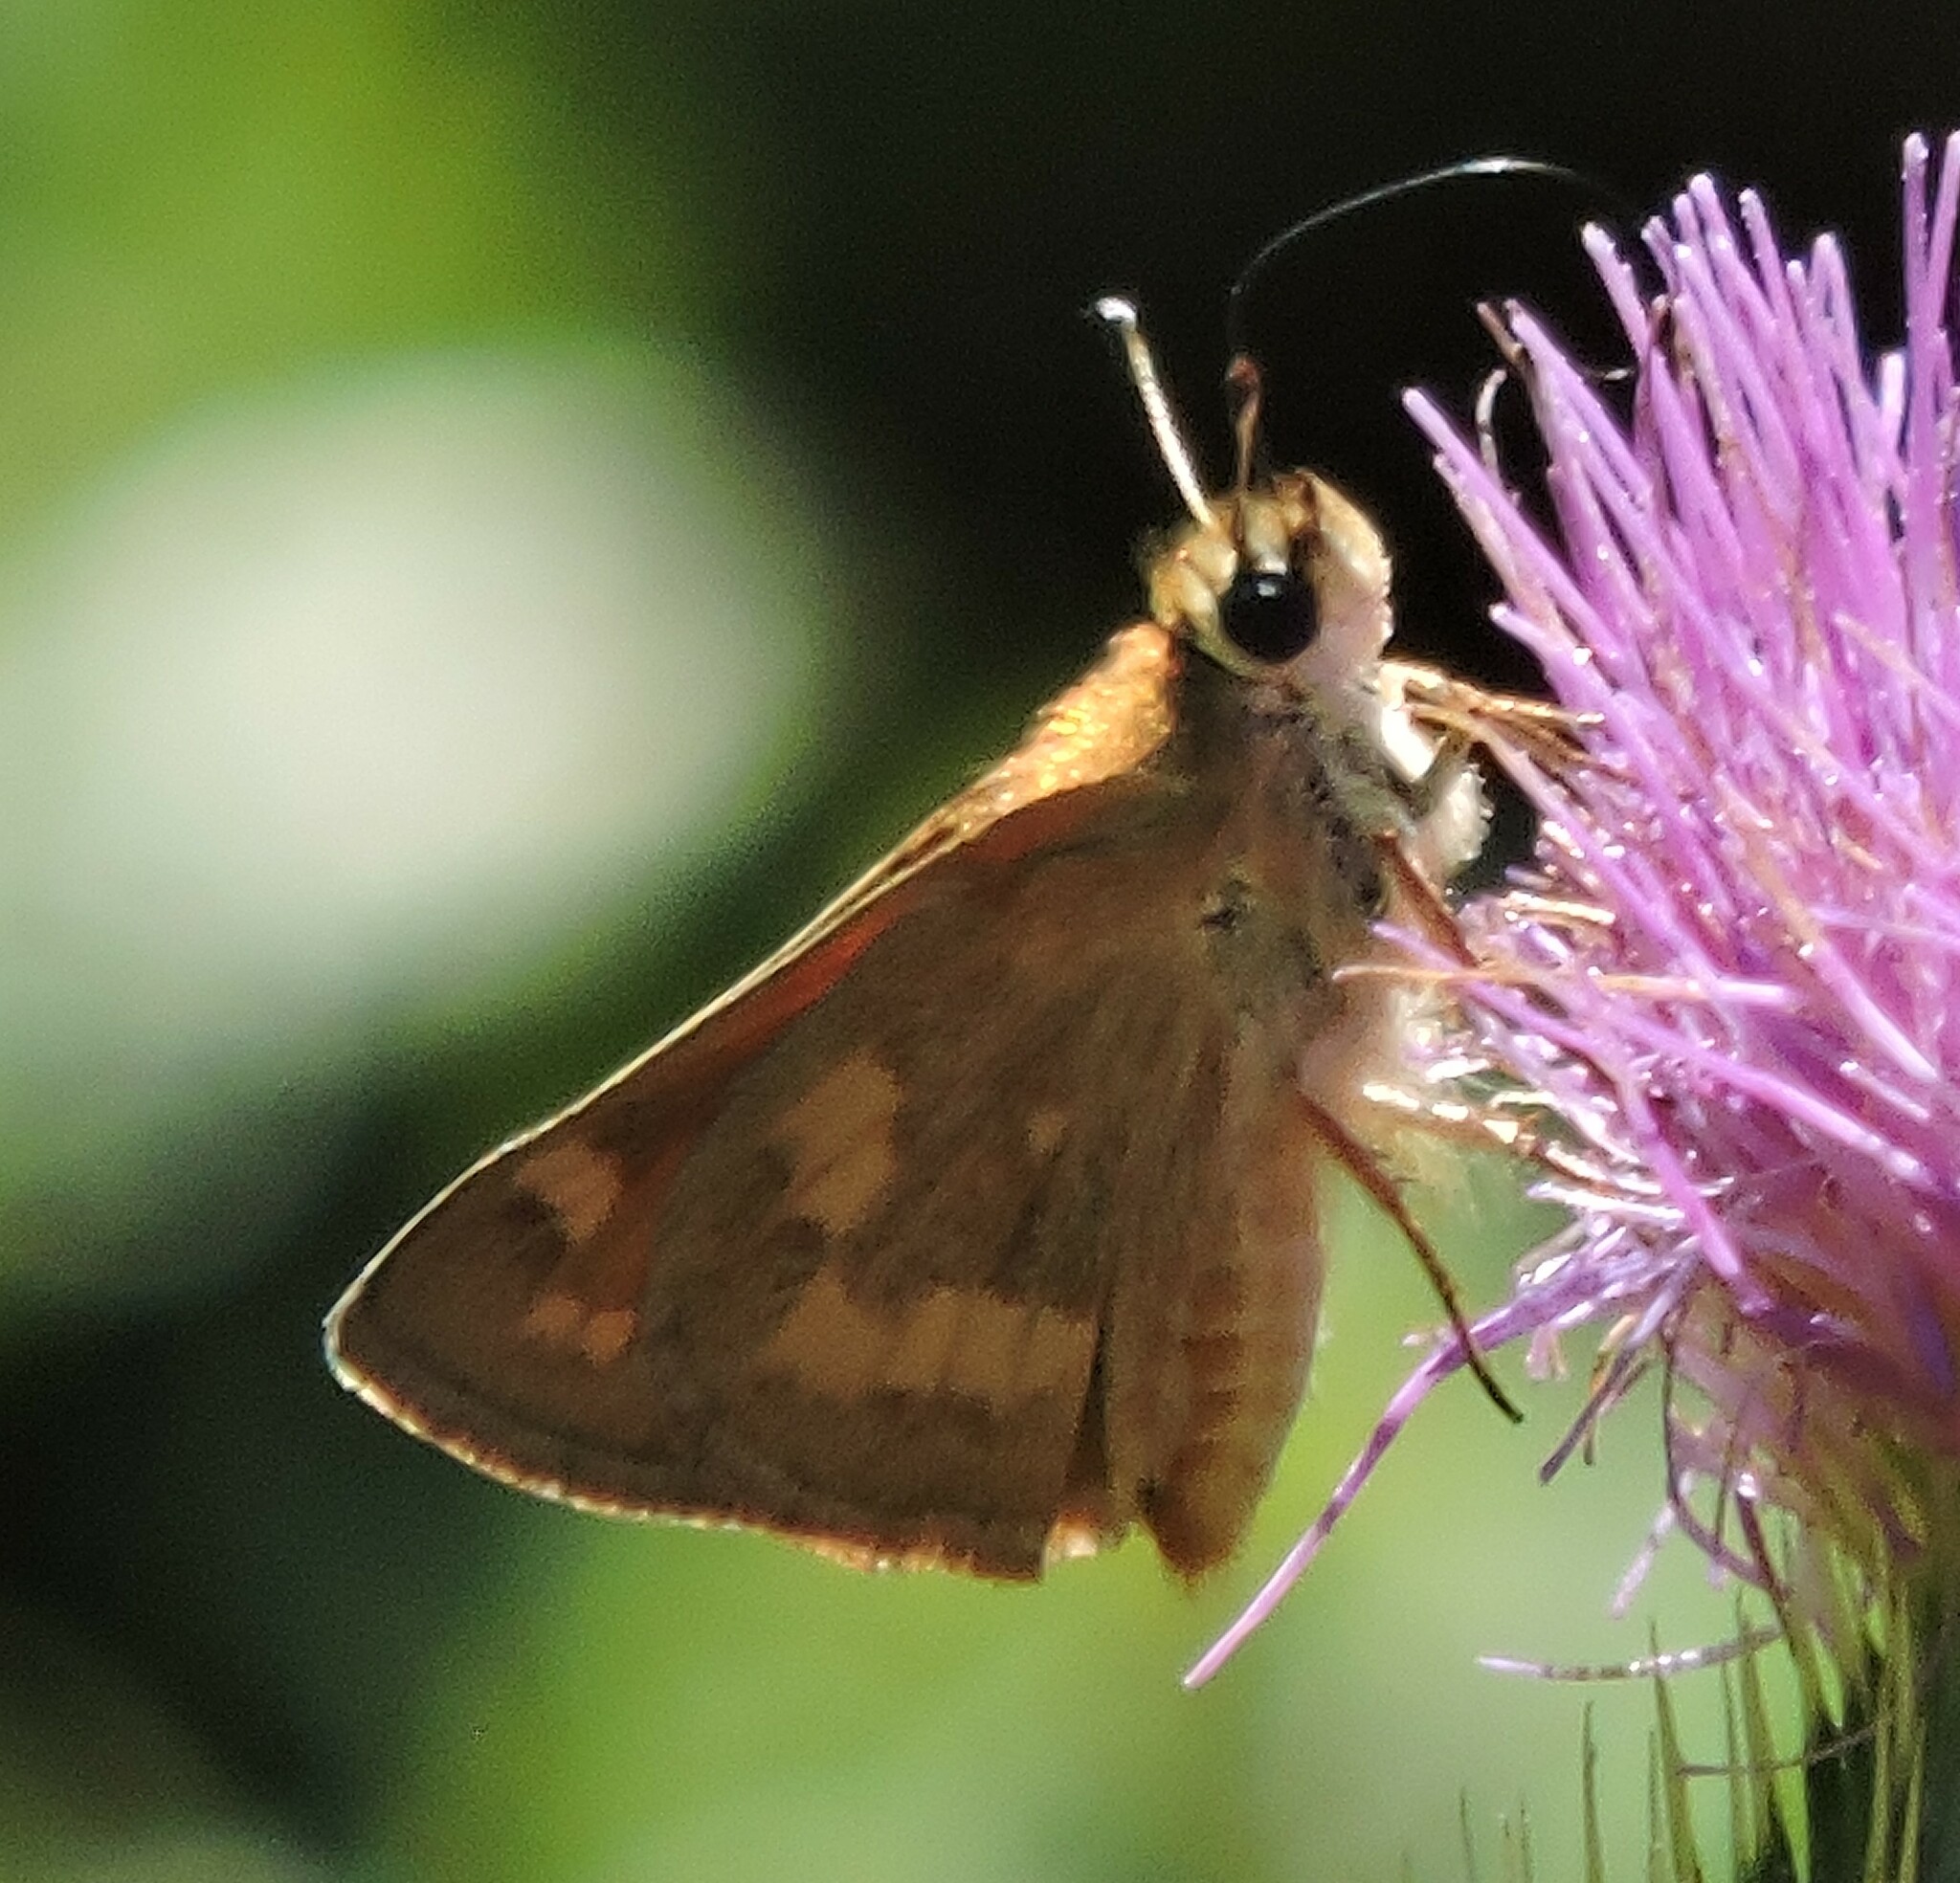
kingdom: Animalia
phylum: Arthropoda
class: Insecta
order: Lepidoptera
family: Hesperiidae
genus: Ochlodes
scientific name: Ochlodes sylvanoides
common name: Woodland skipper
